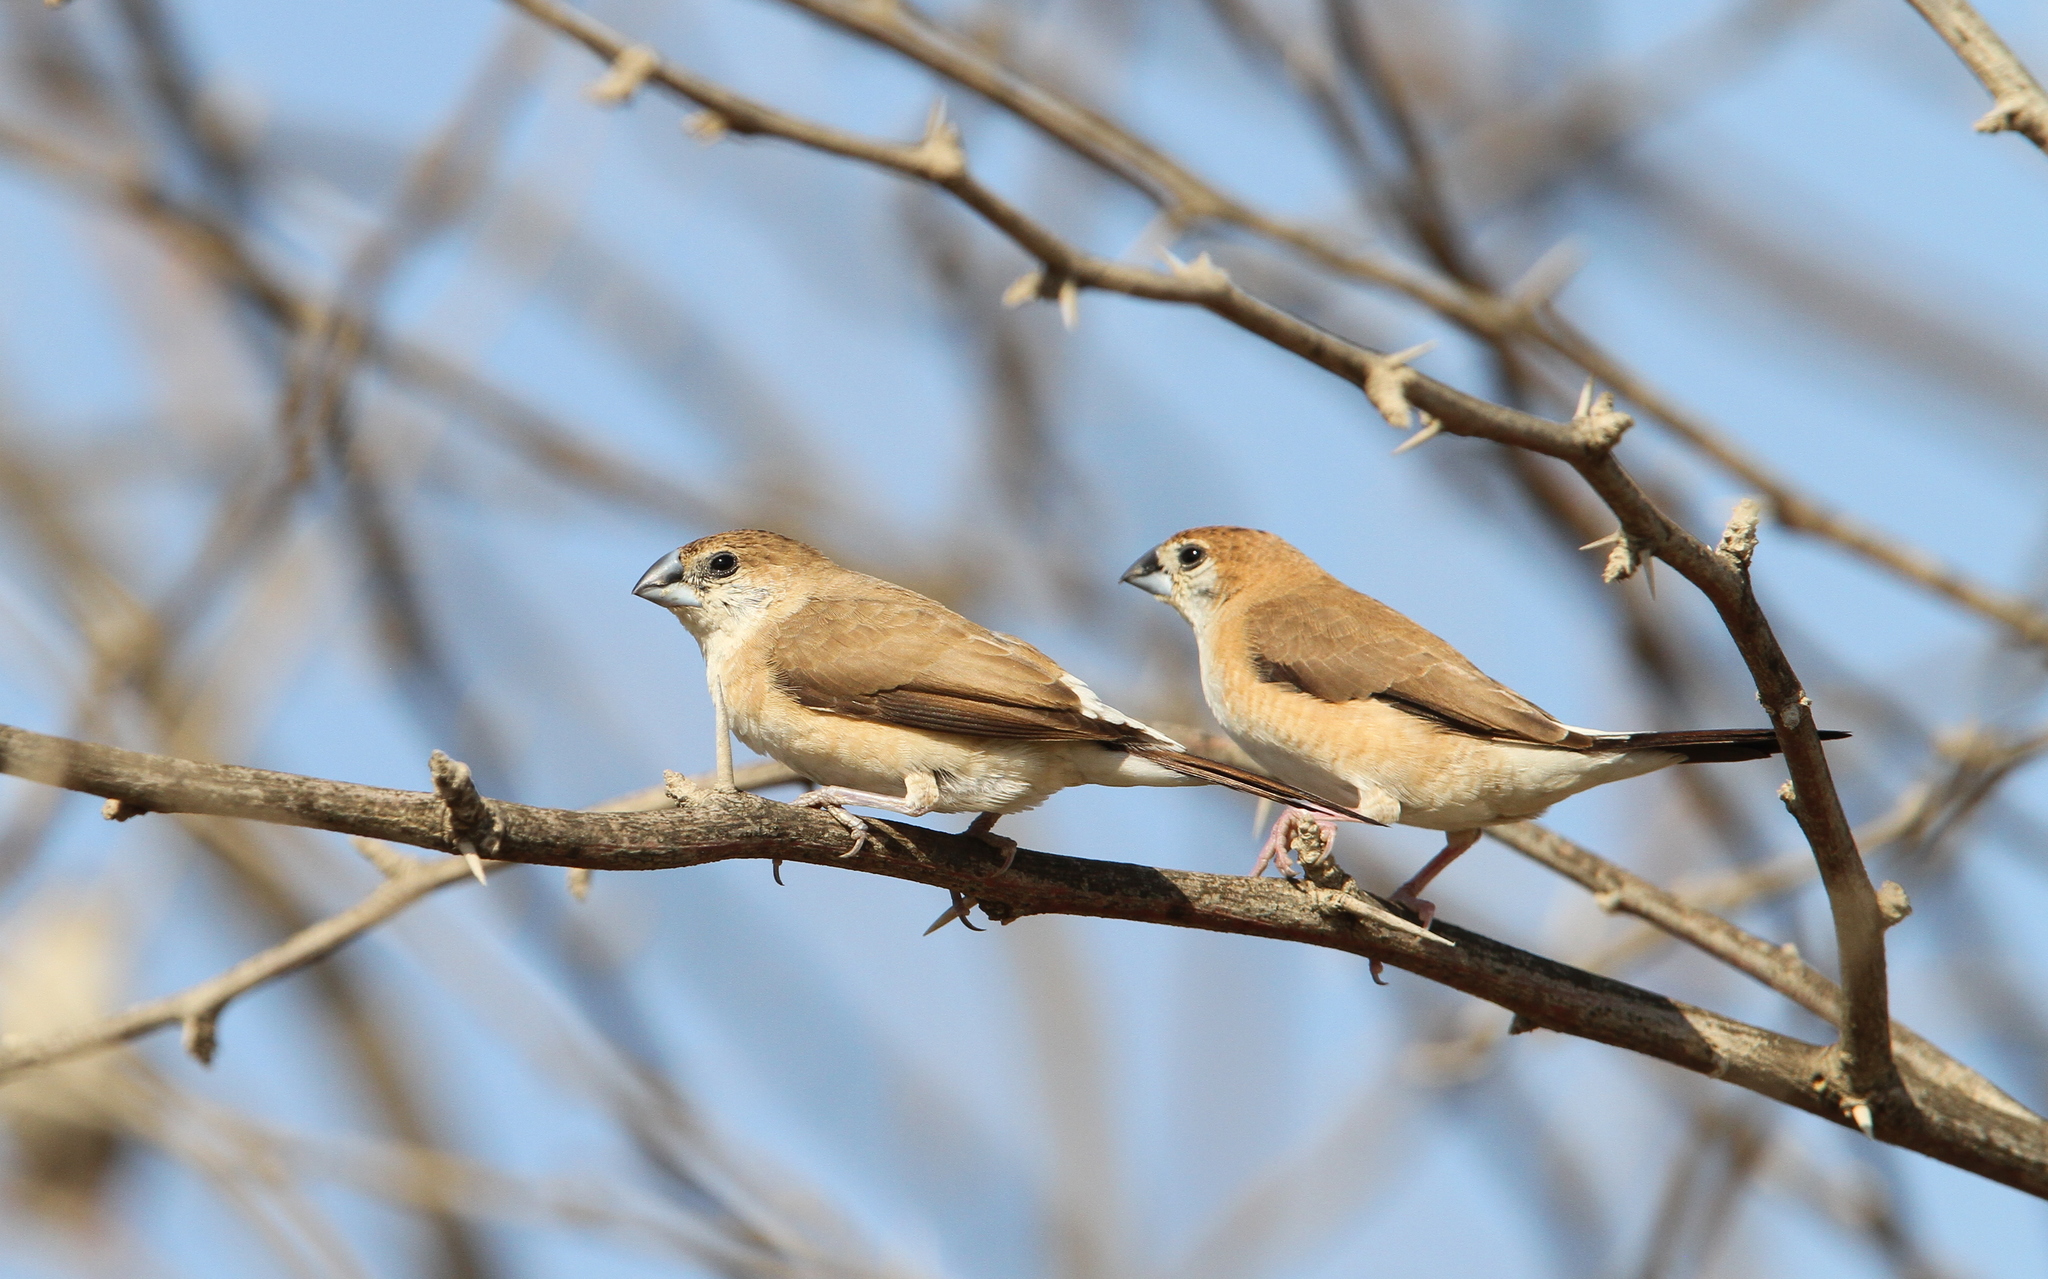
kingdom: Animalia
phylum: Chordata
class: Aves
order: Passeriformes
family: Estrildidae
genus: Euodice
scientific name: Euodice malabarica
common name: Indian silverbill
